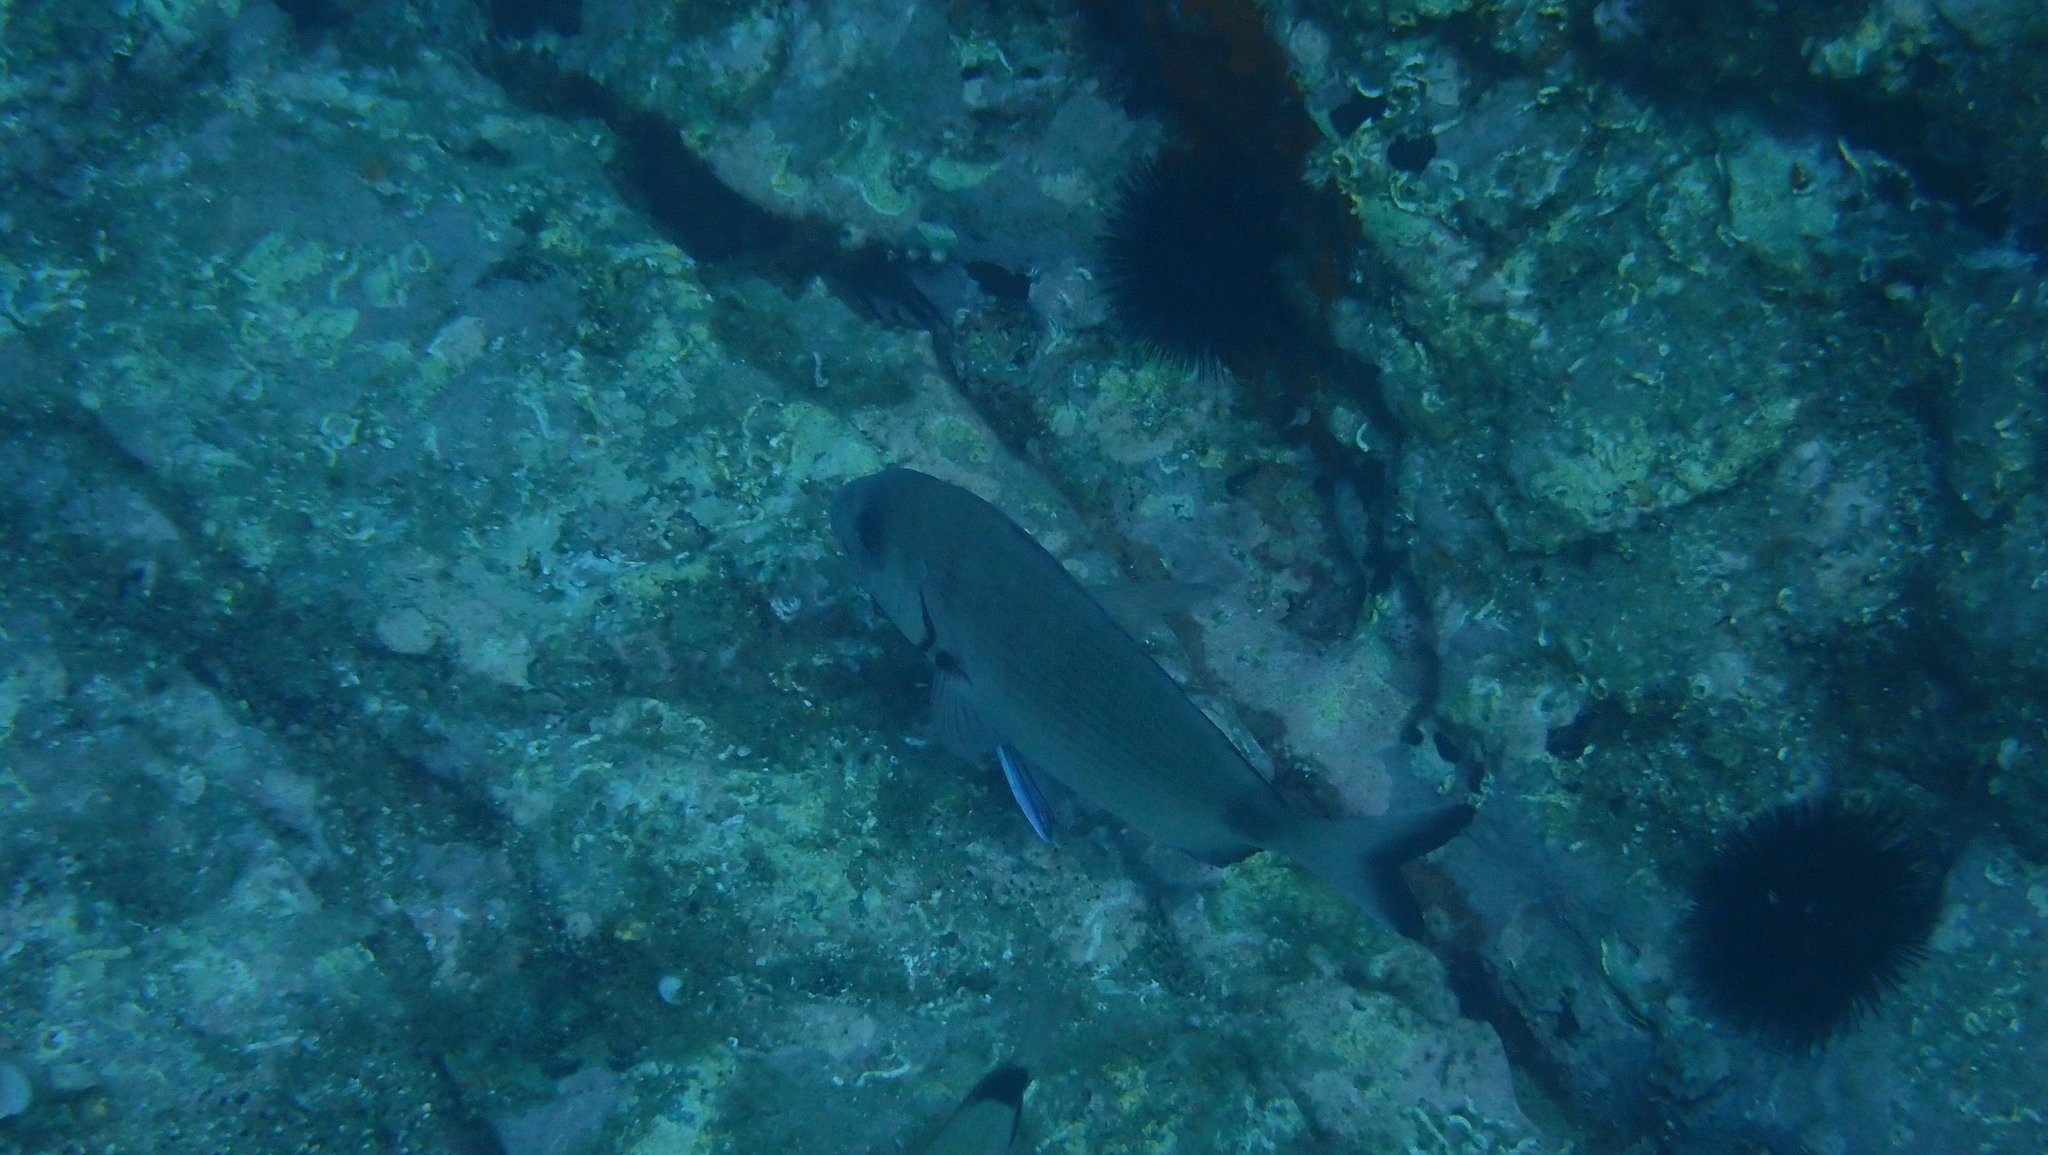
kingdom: Animalia
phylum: Chordata
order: Perciformes
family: Sparidae
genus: Diplodus
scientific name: Diplodus sargus
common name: White seabream
